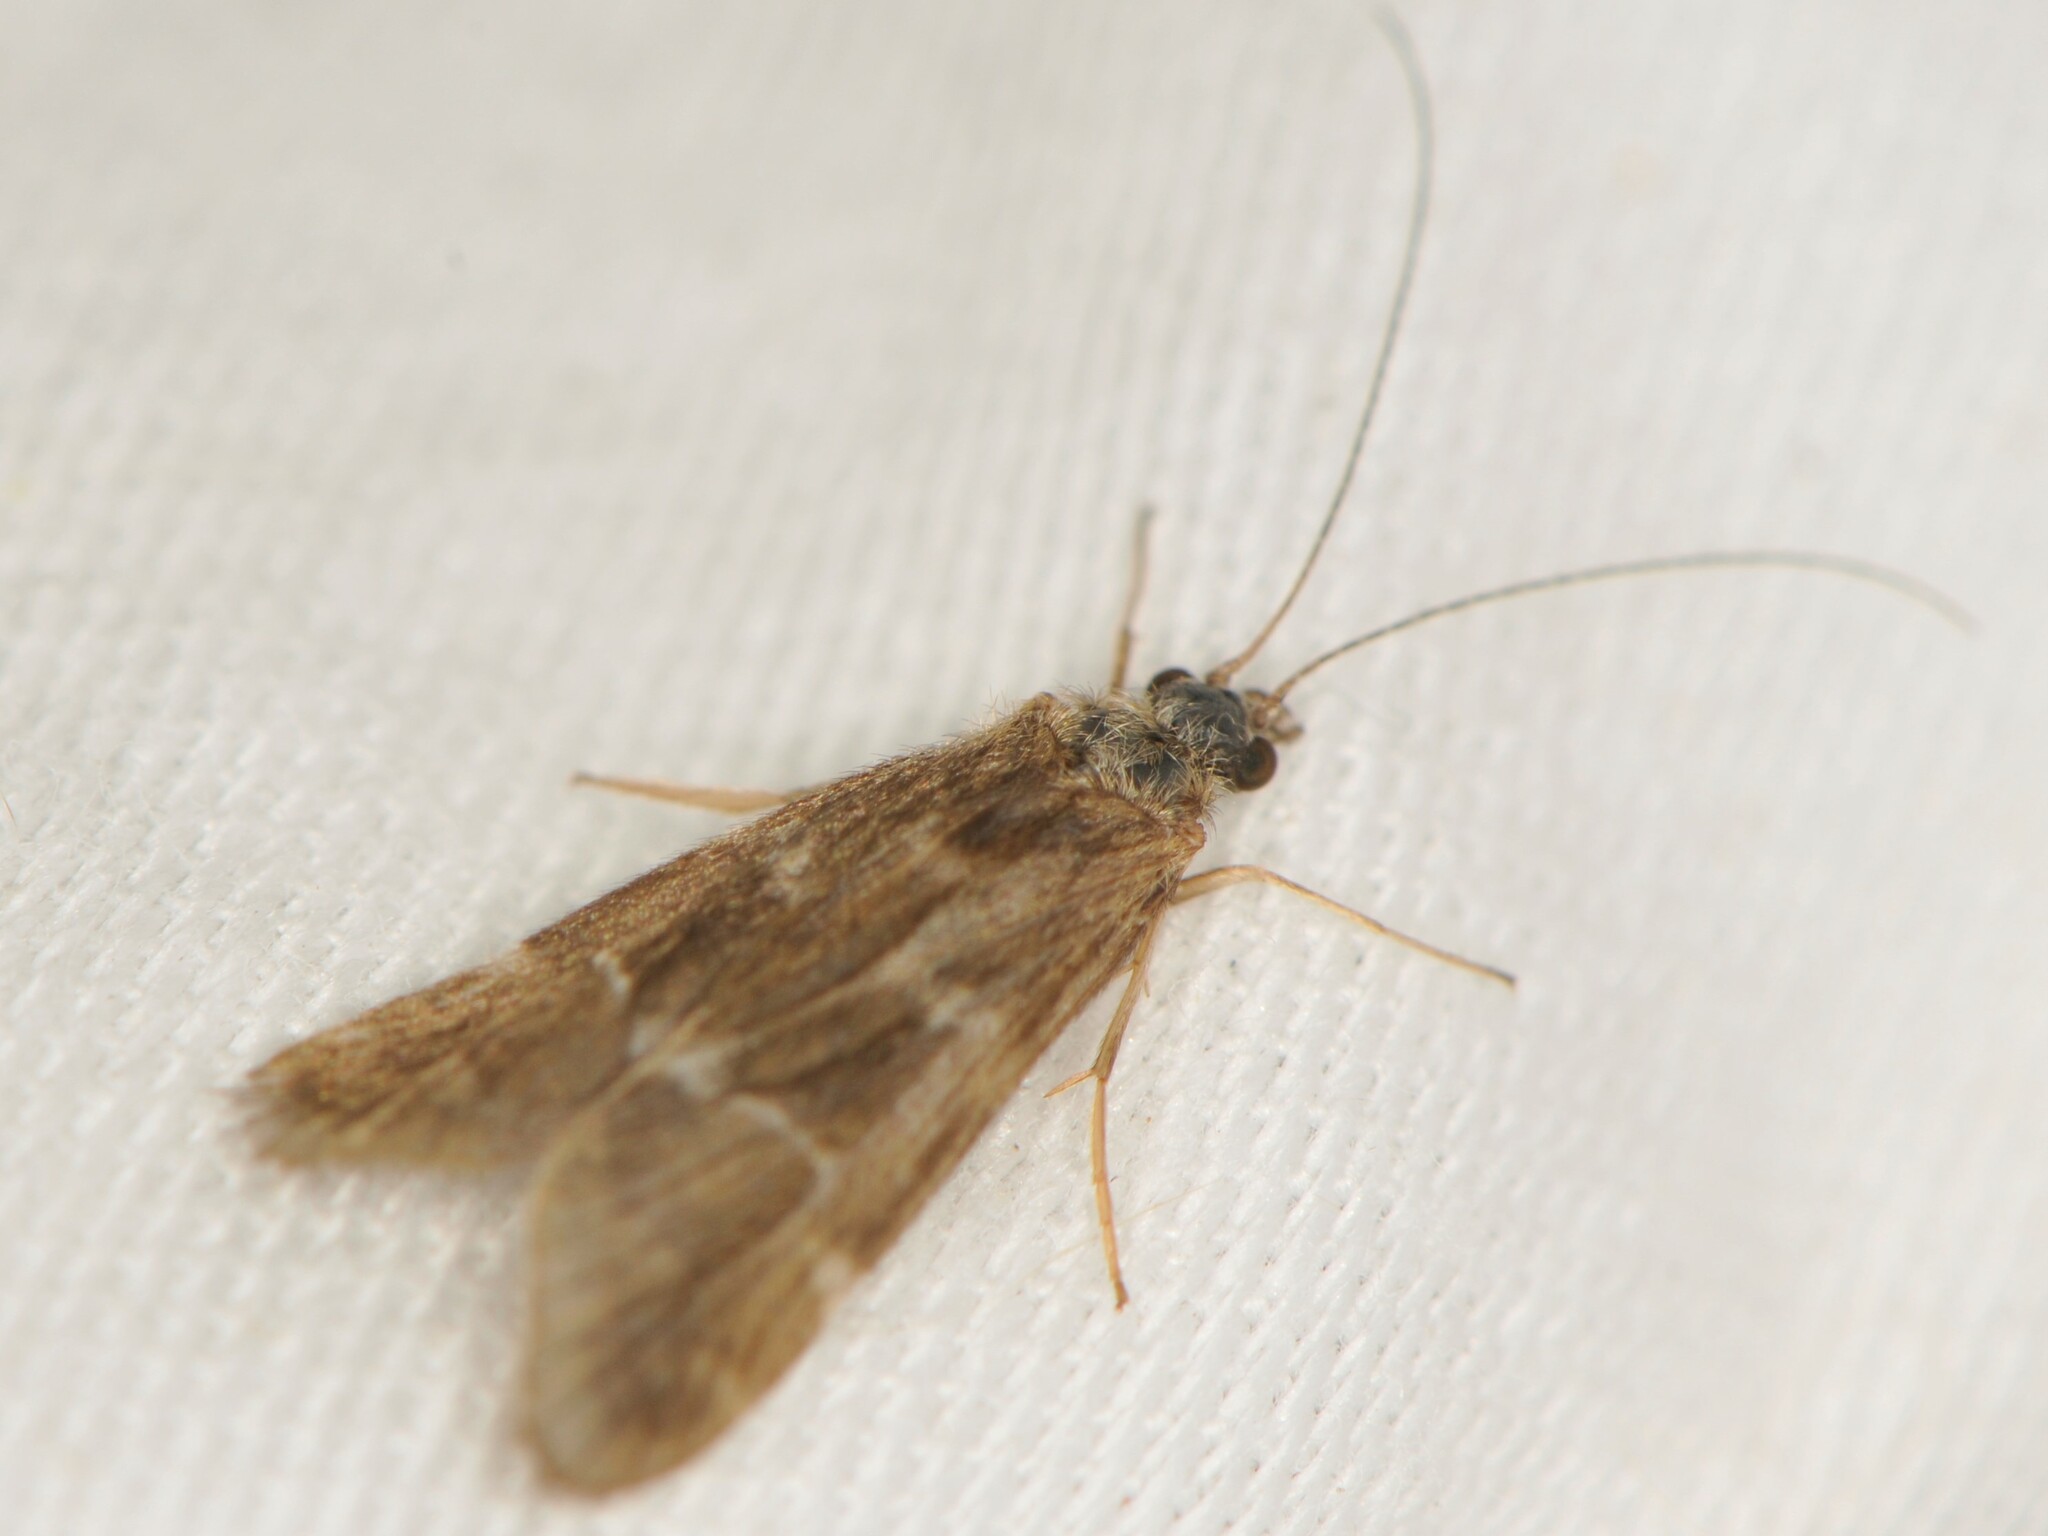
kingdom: Animalia
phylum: Arthropoda
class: Insecta
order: Trichoptera
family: Hydropsychidae
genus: Smicridea
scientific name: Smicridea fasciatella
